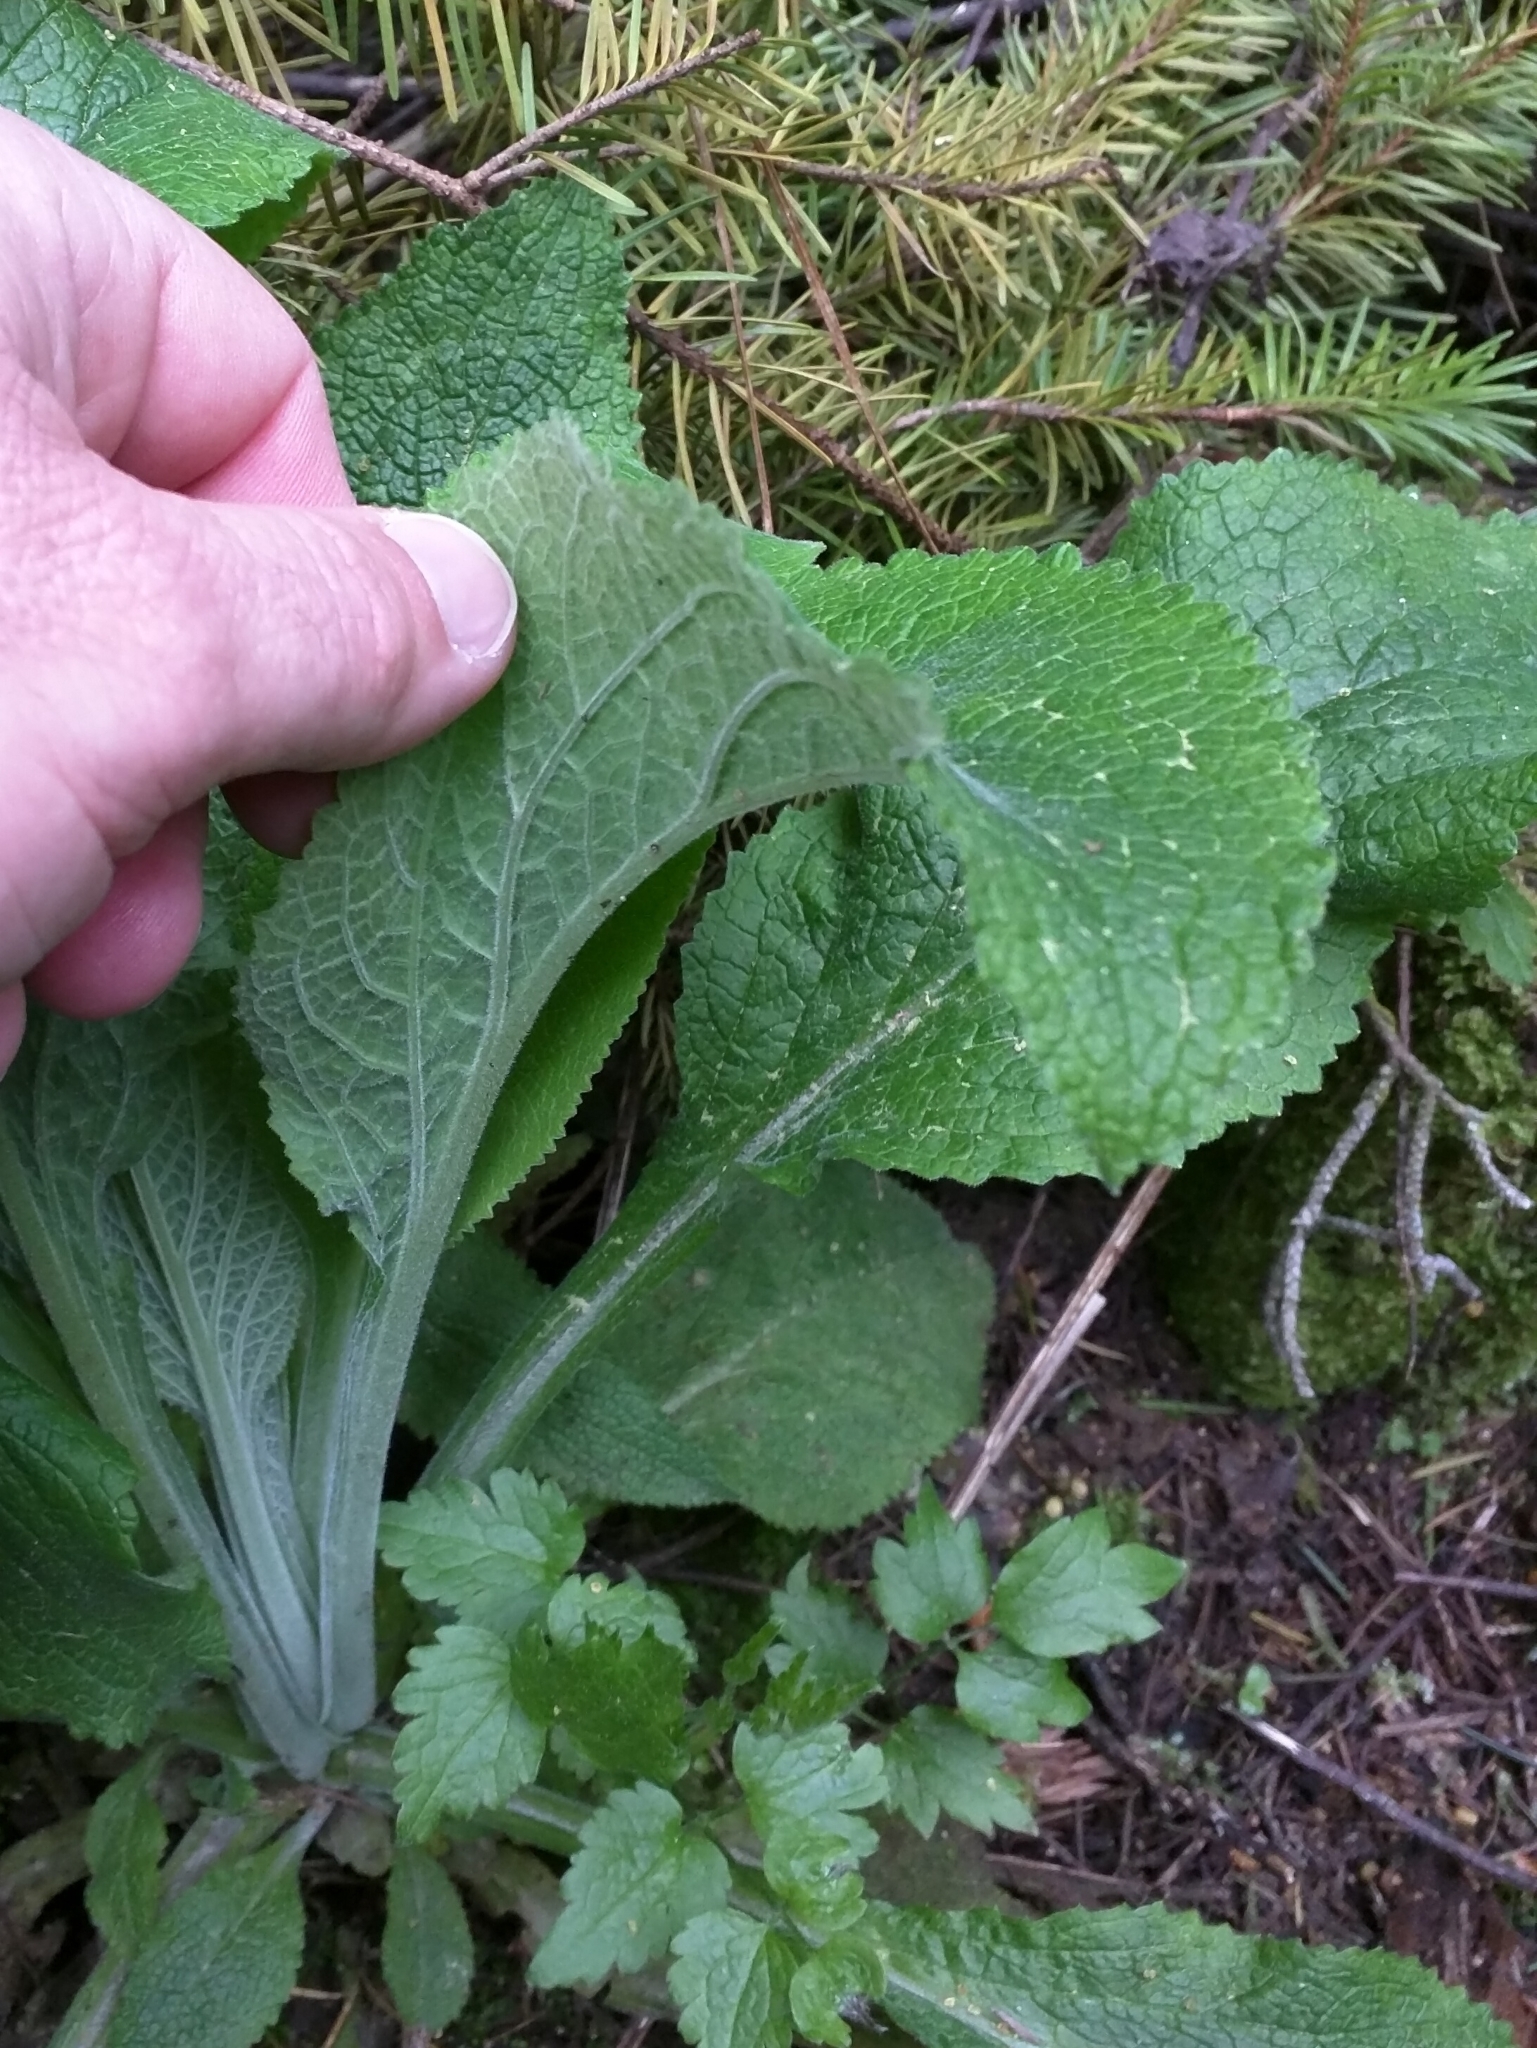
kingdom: Plantae
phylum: Tracheophyta
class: Magnoliopsida
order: Lamiales
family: Plantaginaceae
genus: Digitalis
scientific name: Digitalis purpurea
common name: Foxglove
